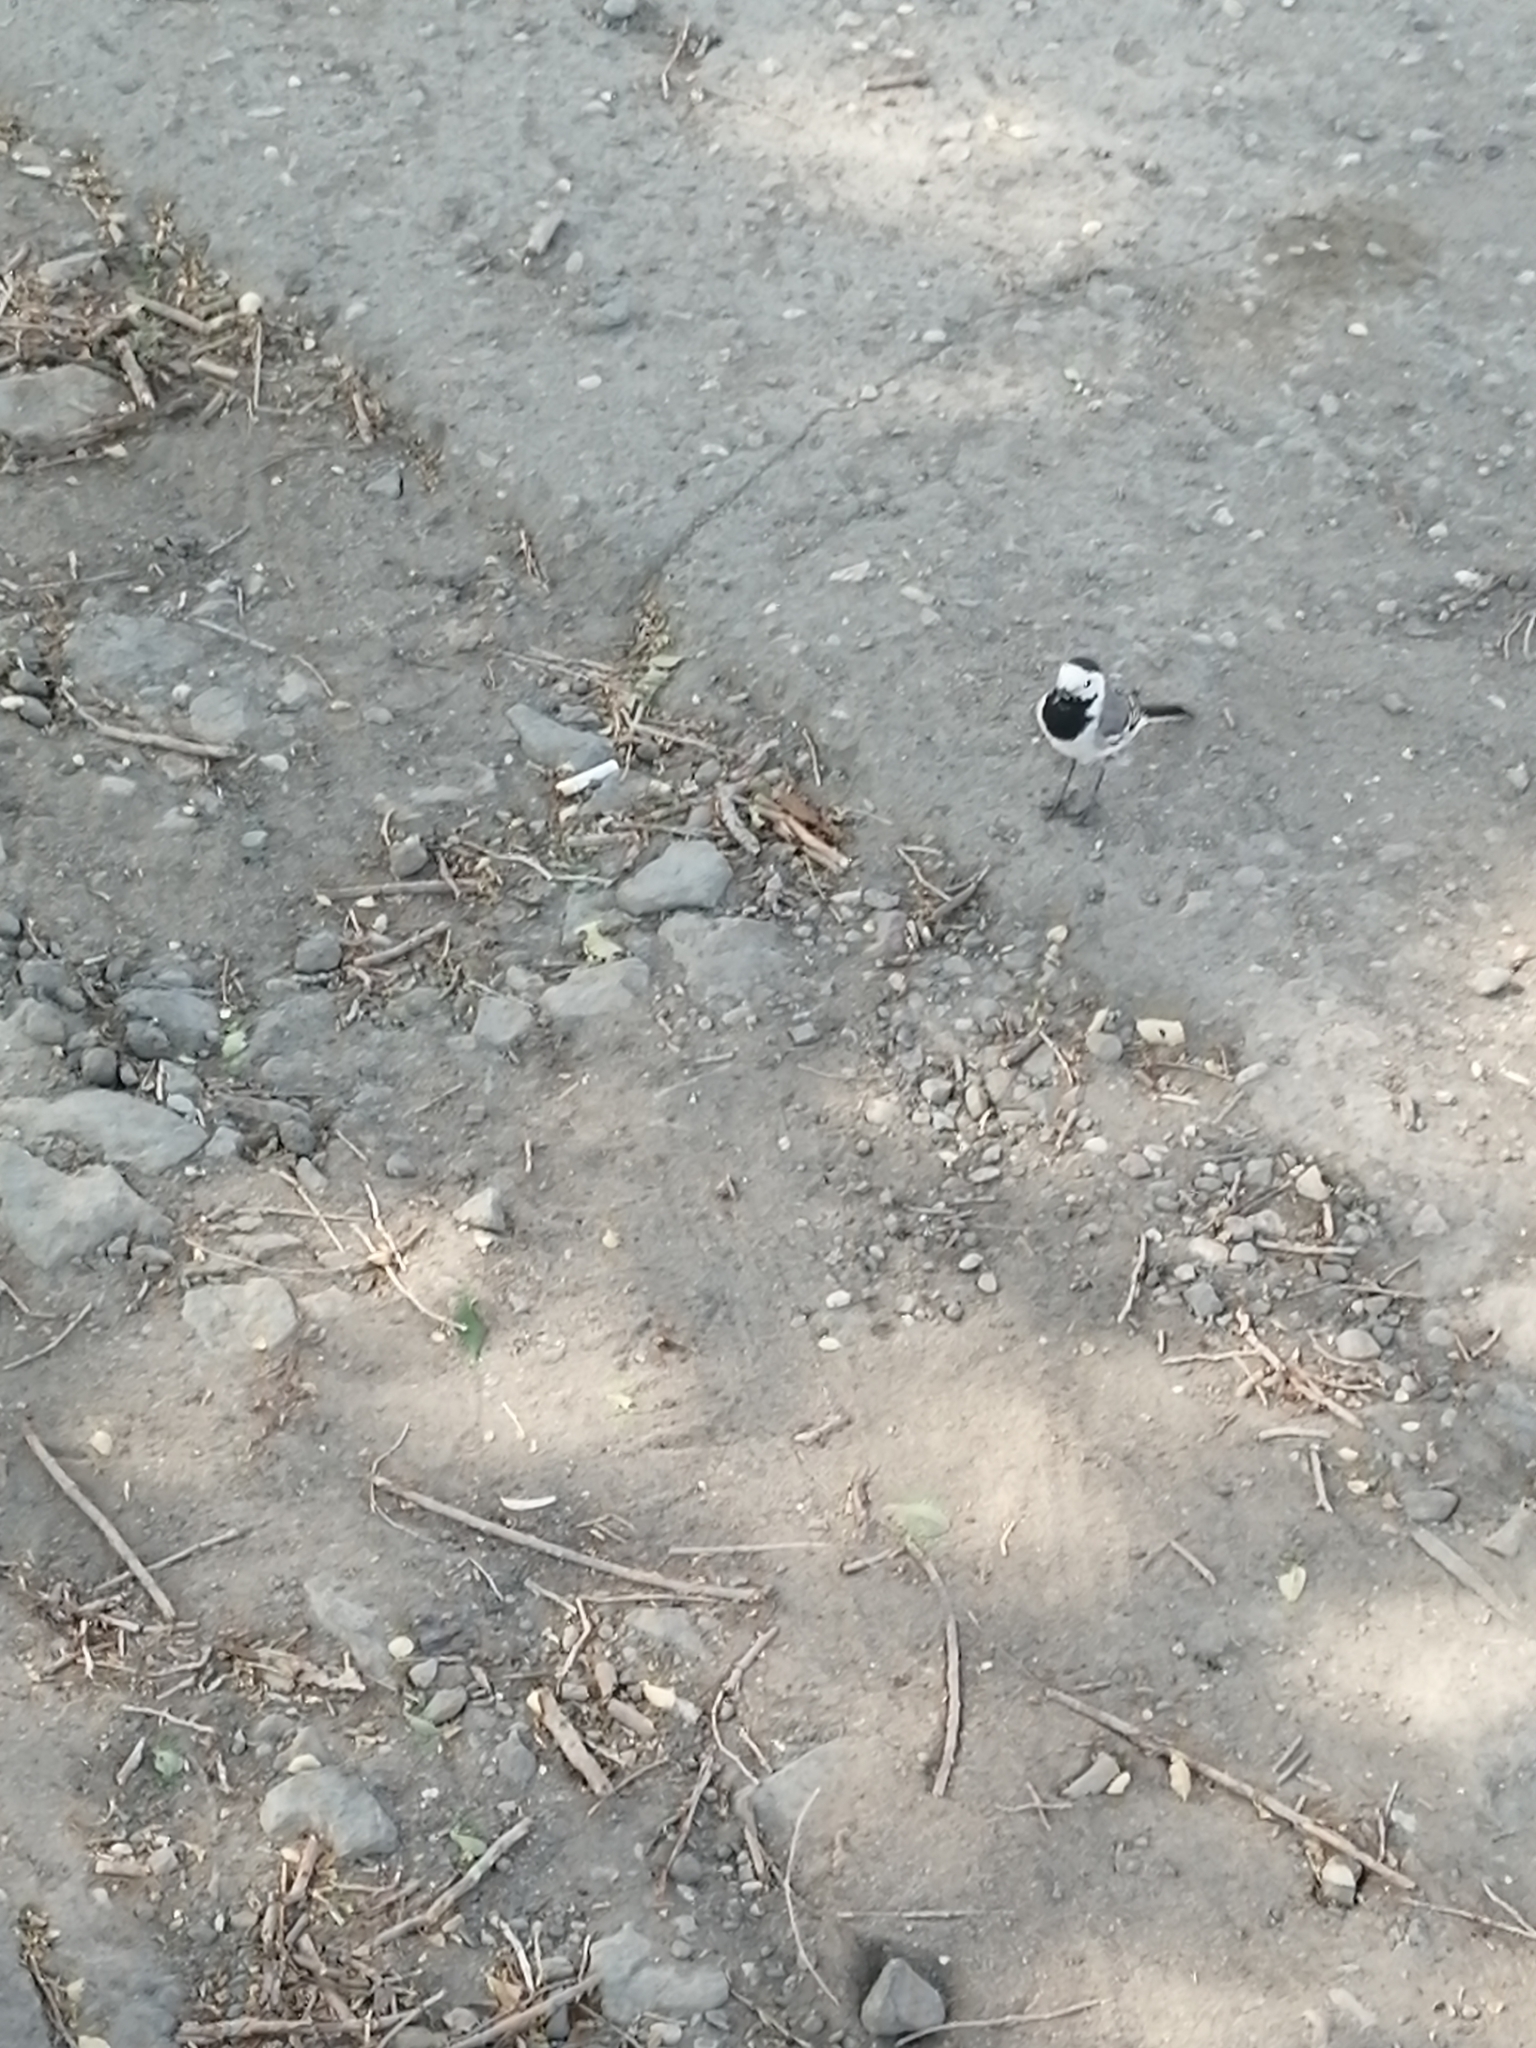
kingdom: Animalia
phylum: Chordata
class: Aves
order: Passeriformes
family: Motacillidae
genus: Motacilla
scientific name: Motacilla alba
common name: White wagtail
